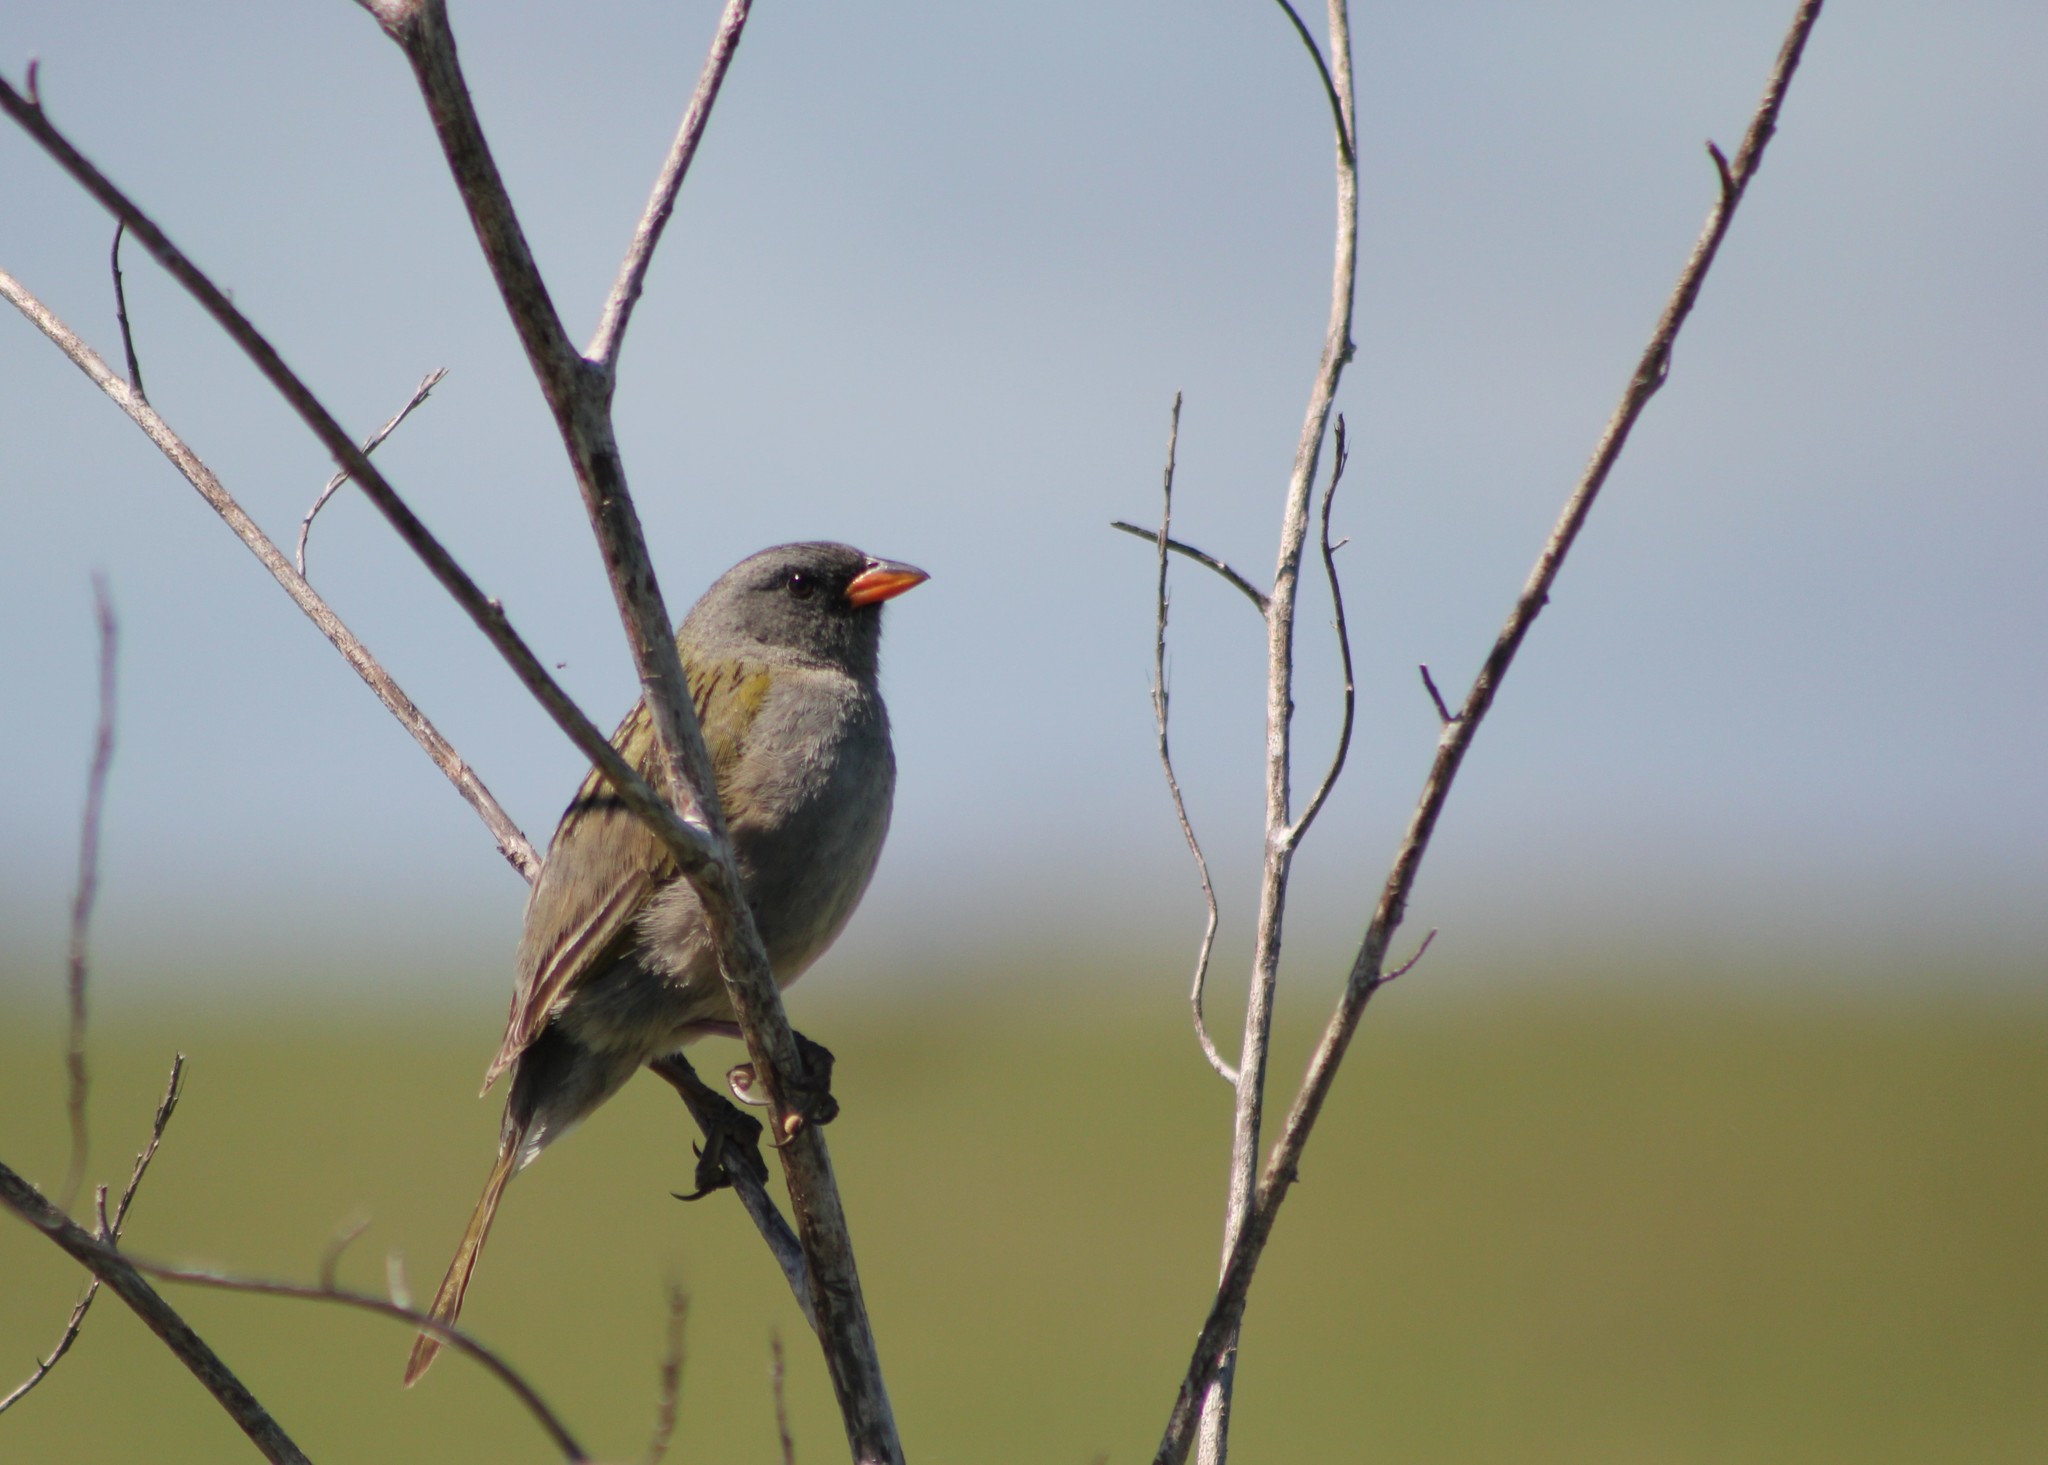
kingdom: Animalia
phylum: Chordata
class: Aves
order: Passeriformes
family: Thraupidae
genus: Embernagra
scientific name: Embernagra platensis
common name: Pampa finch
